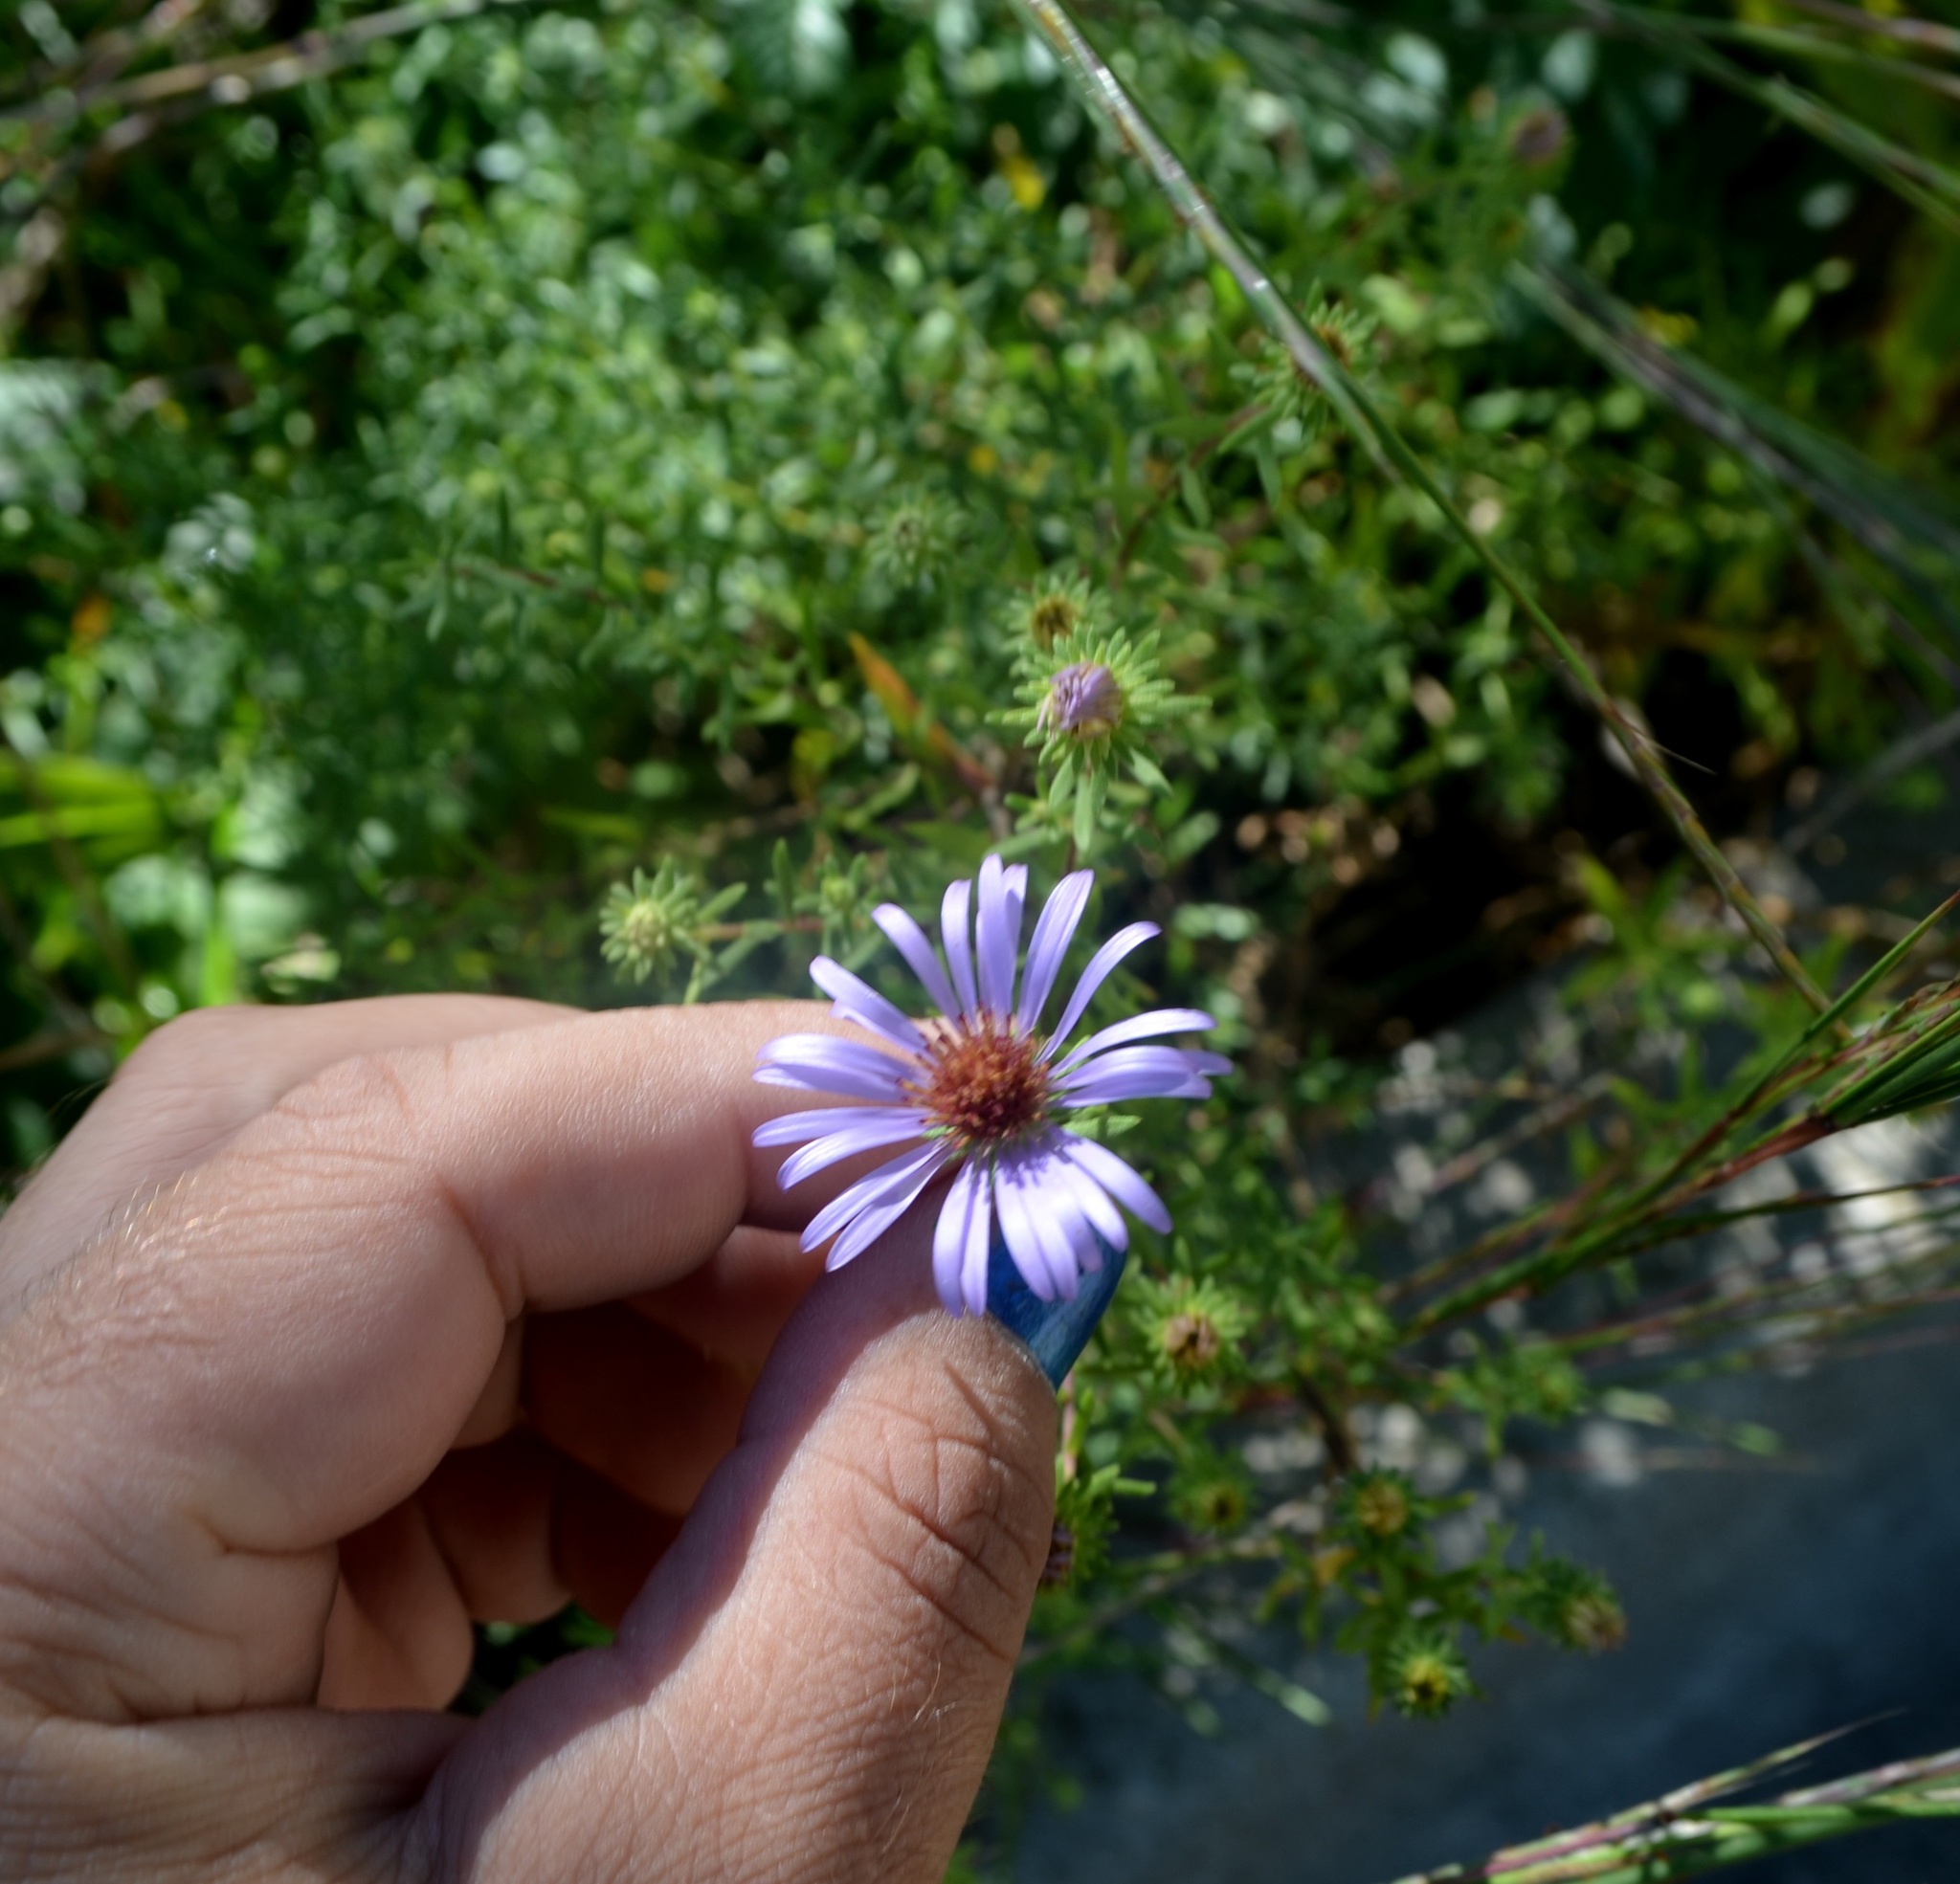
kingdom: Plantae
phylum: Tracheophyta
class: Magnoliopsida
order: Asterales
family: Asteraceae
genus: Symphyotrichum
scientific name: Symphyotrichum oblongifolium
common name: Aromatic aster
